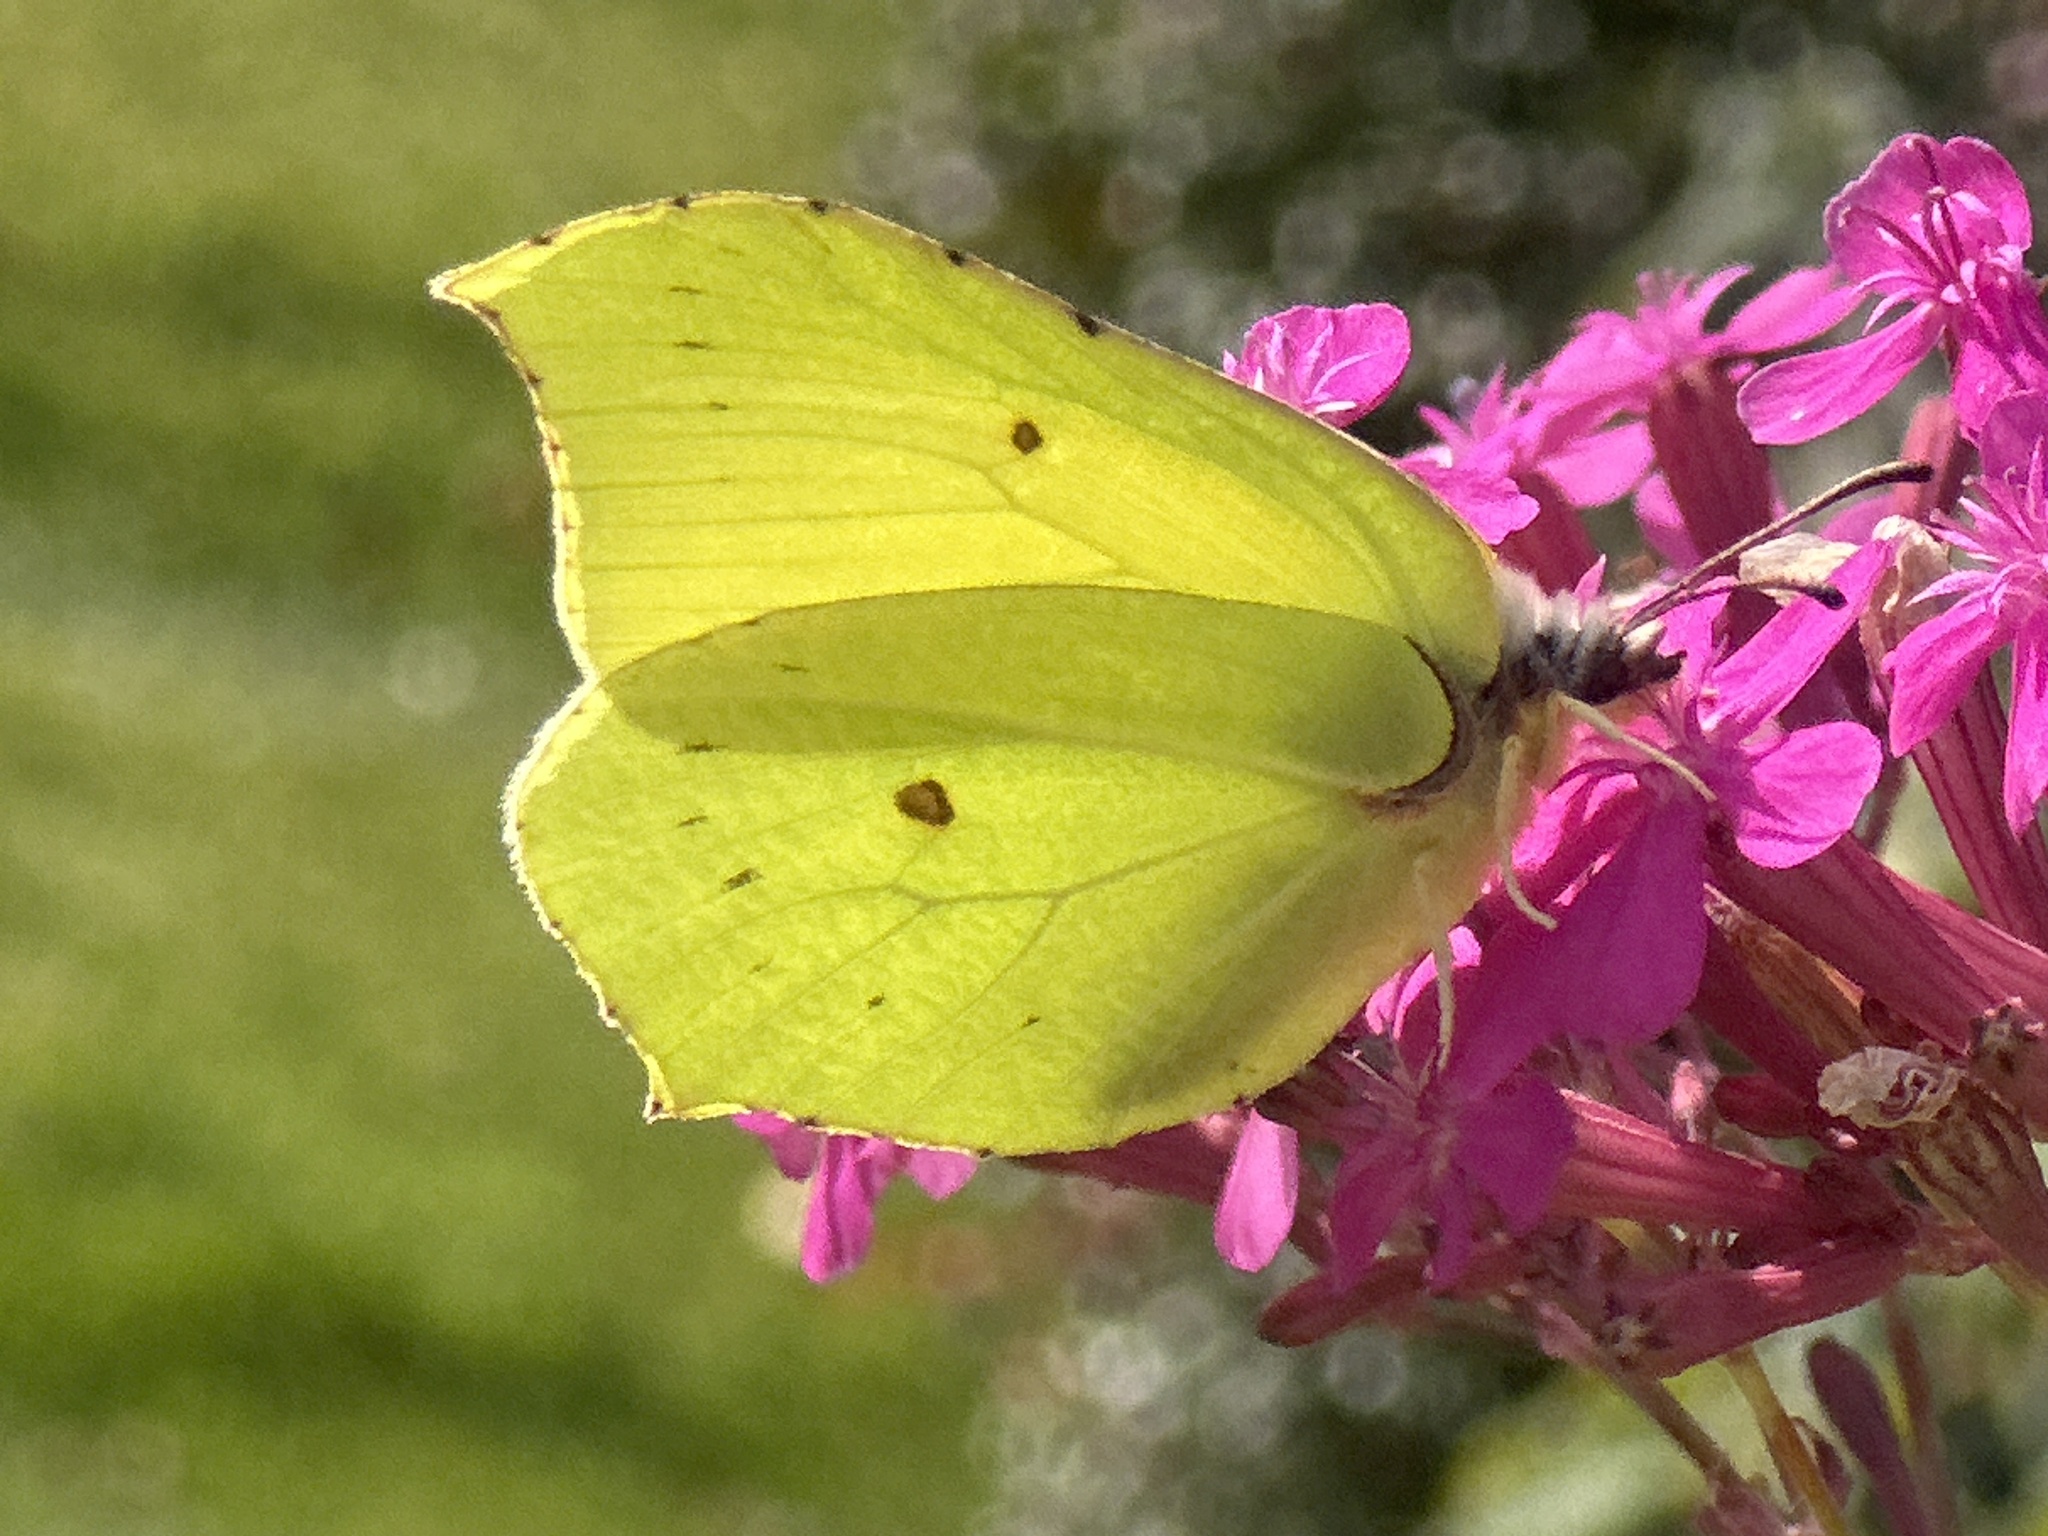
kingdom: Animalia
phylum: Arthropoda
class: Insecta
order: Lepidoptera
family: Pieridae
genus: Gonepteryx
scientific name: Gonepteryx rhamni
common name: Brimstone
